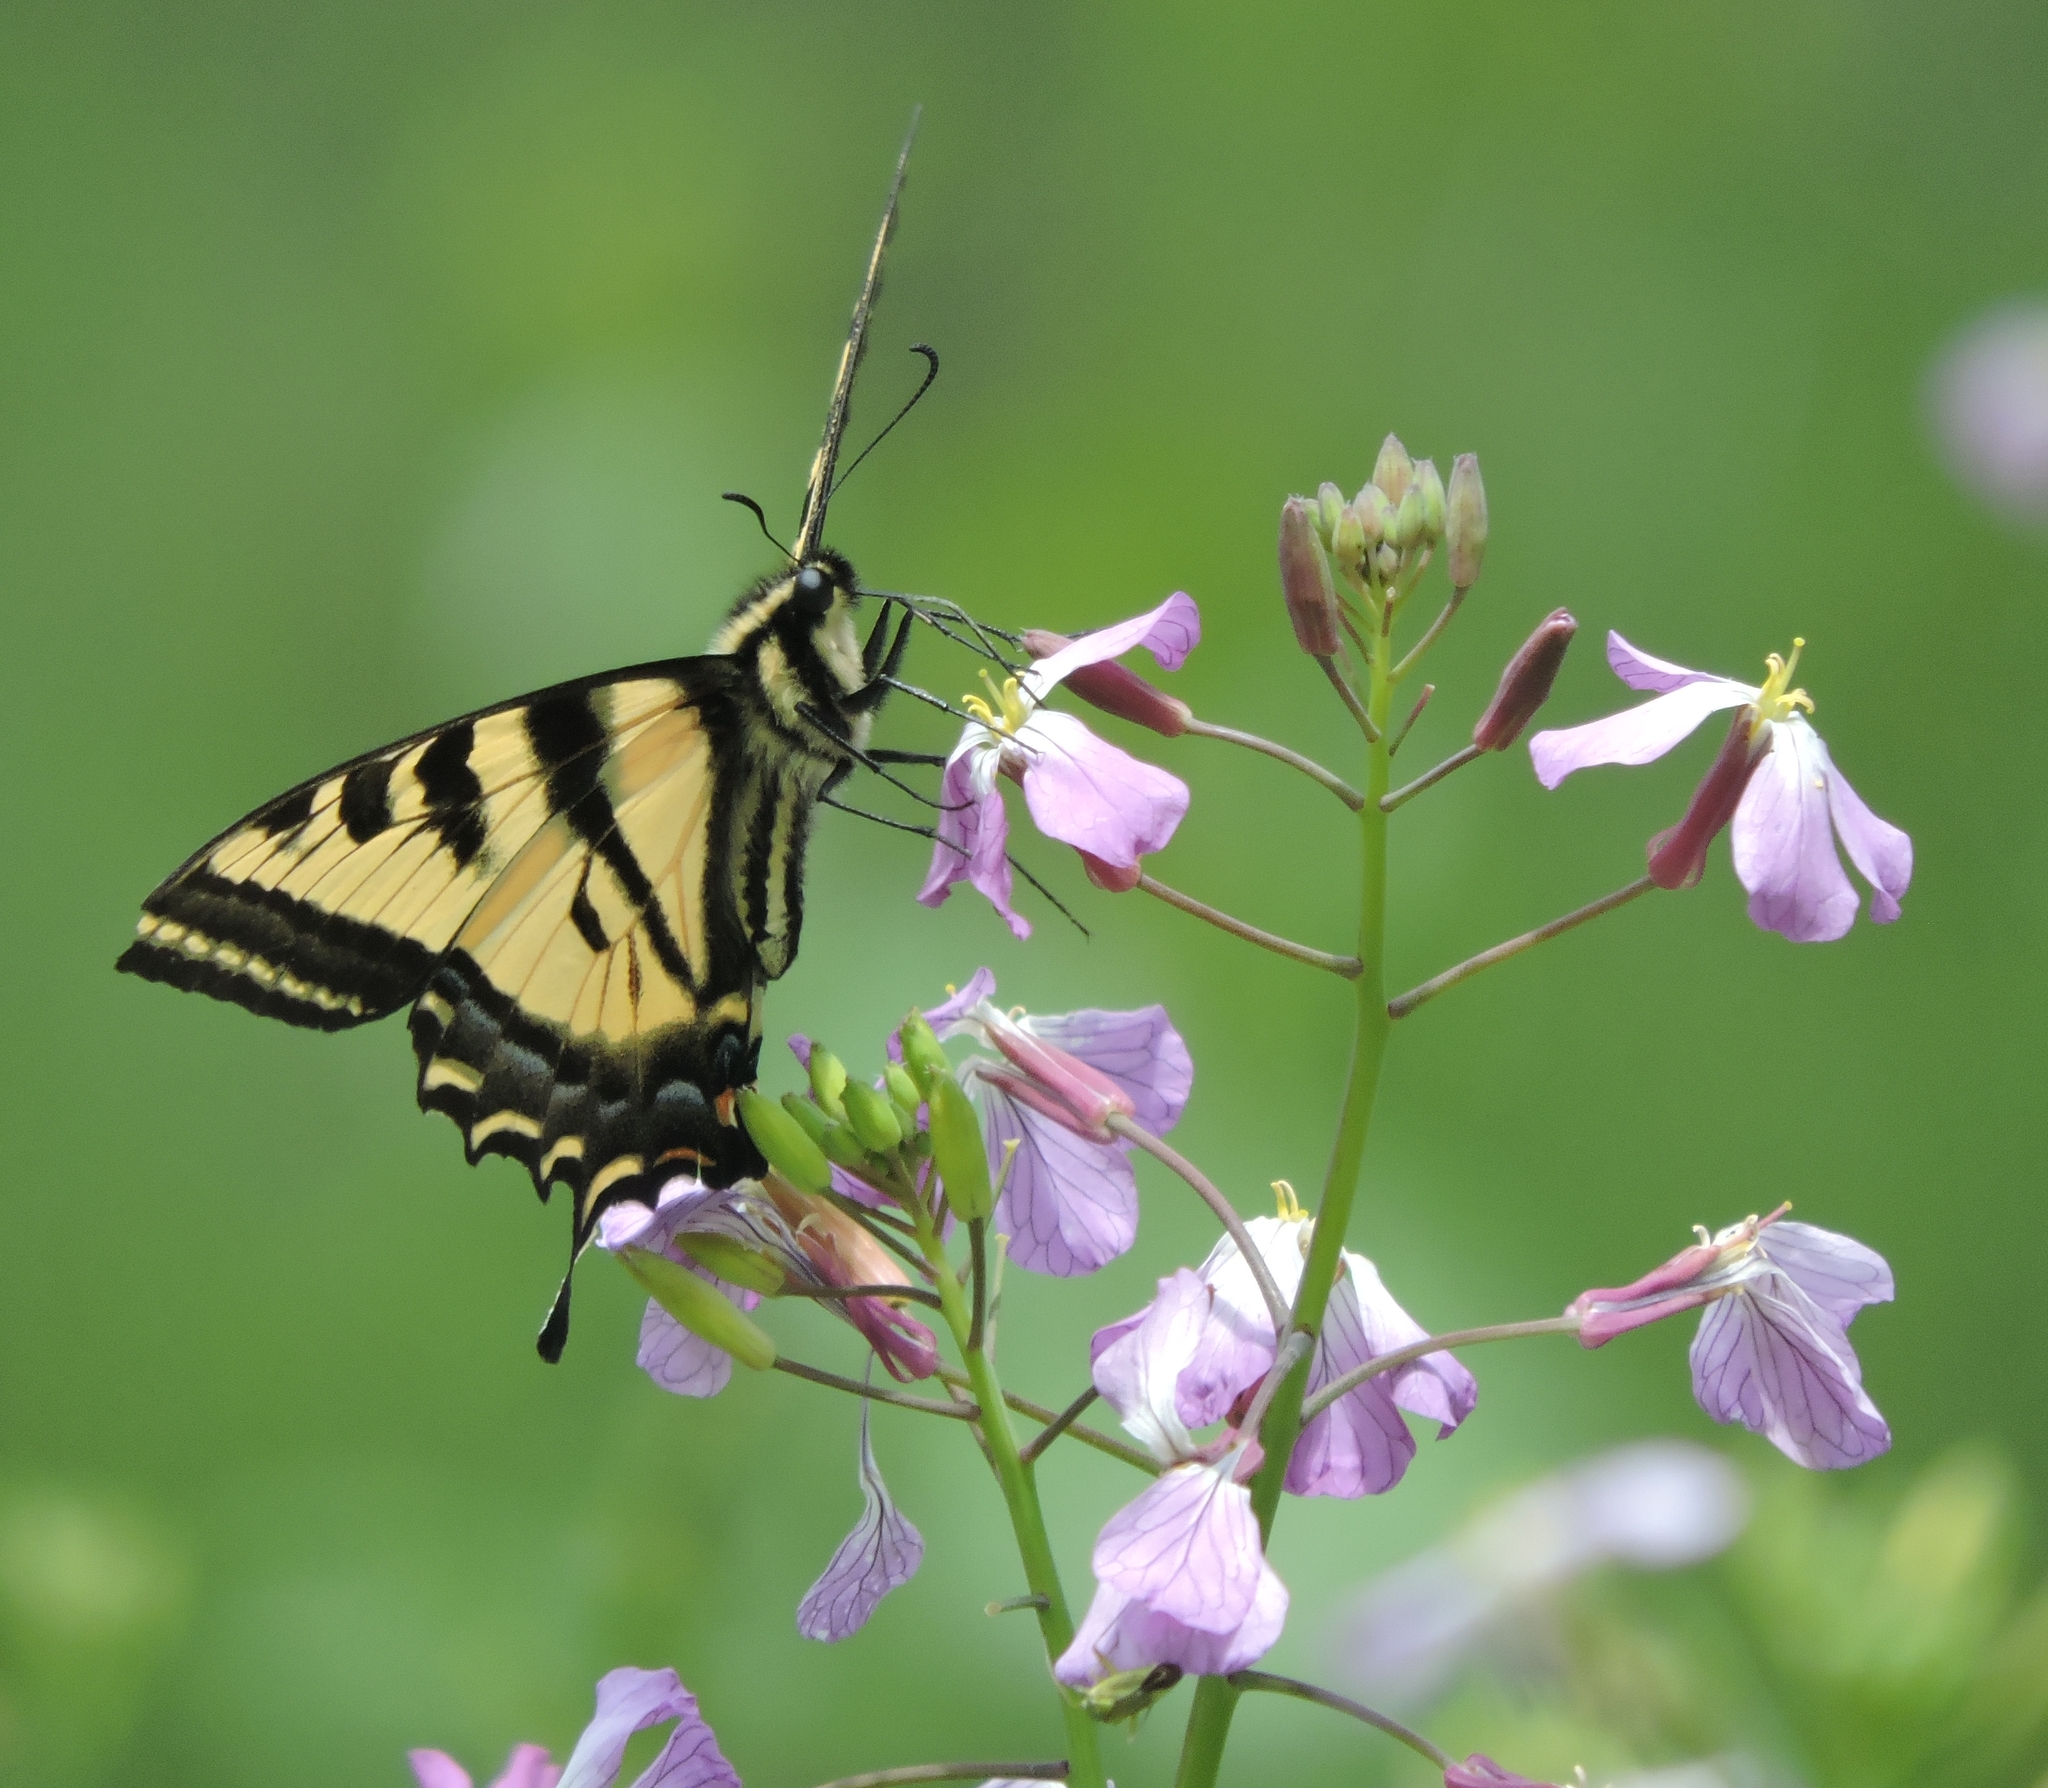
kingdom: Animalia
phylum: Arthropoda
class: Insecta
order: Lepidoptera
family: Papilionidae
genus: Papilio
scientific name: Papilio rutulus
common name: Western tiger swallowtail
